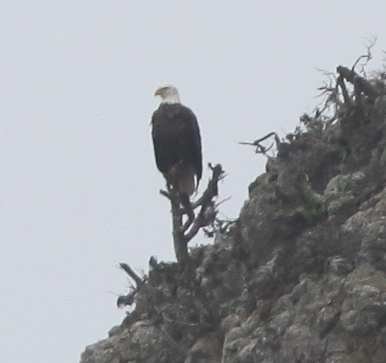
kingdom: Animalia
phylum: Chordata
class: Aves
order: Accipitriformes
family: Accipitridae
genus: Haliaeetus
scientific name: Haliaeetus leucocephalus
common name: Bald eagle
